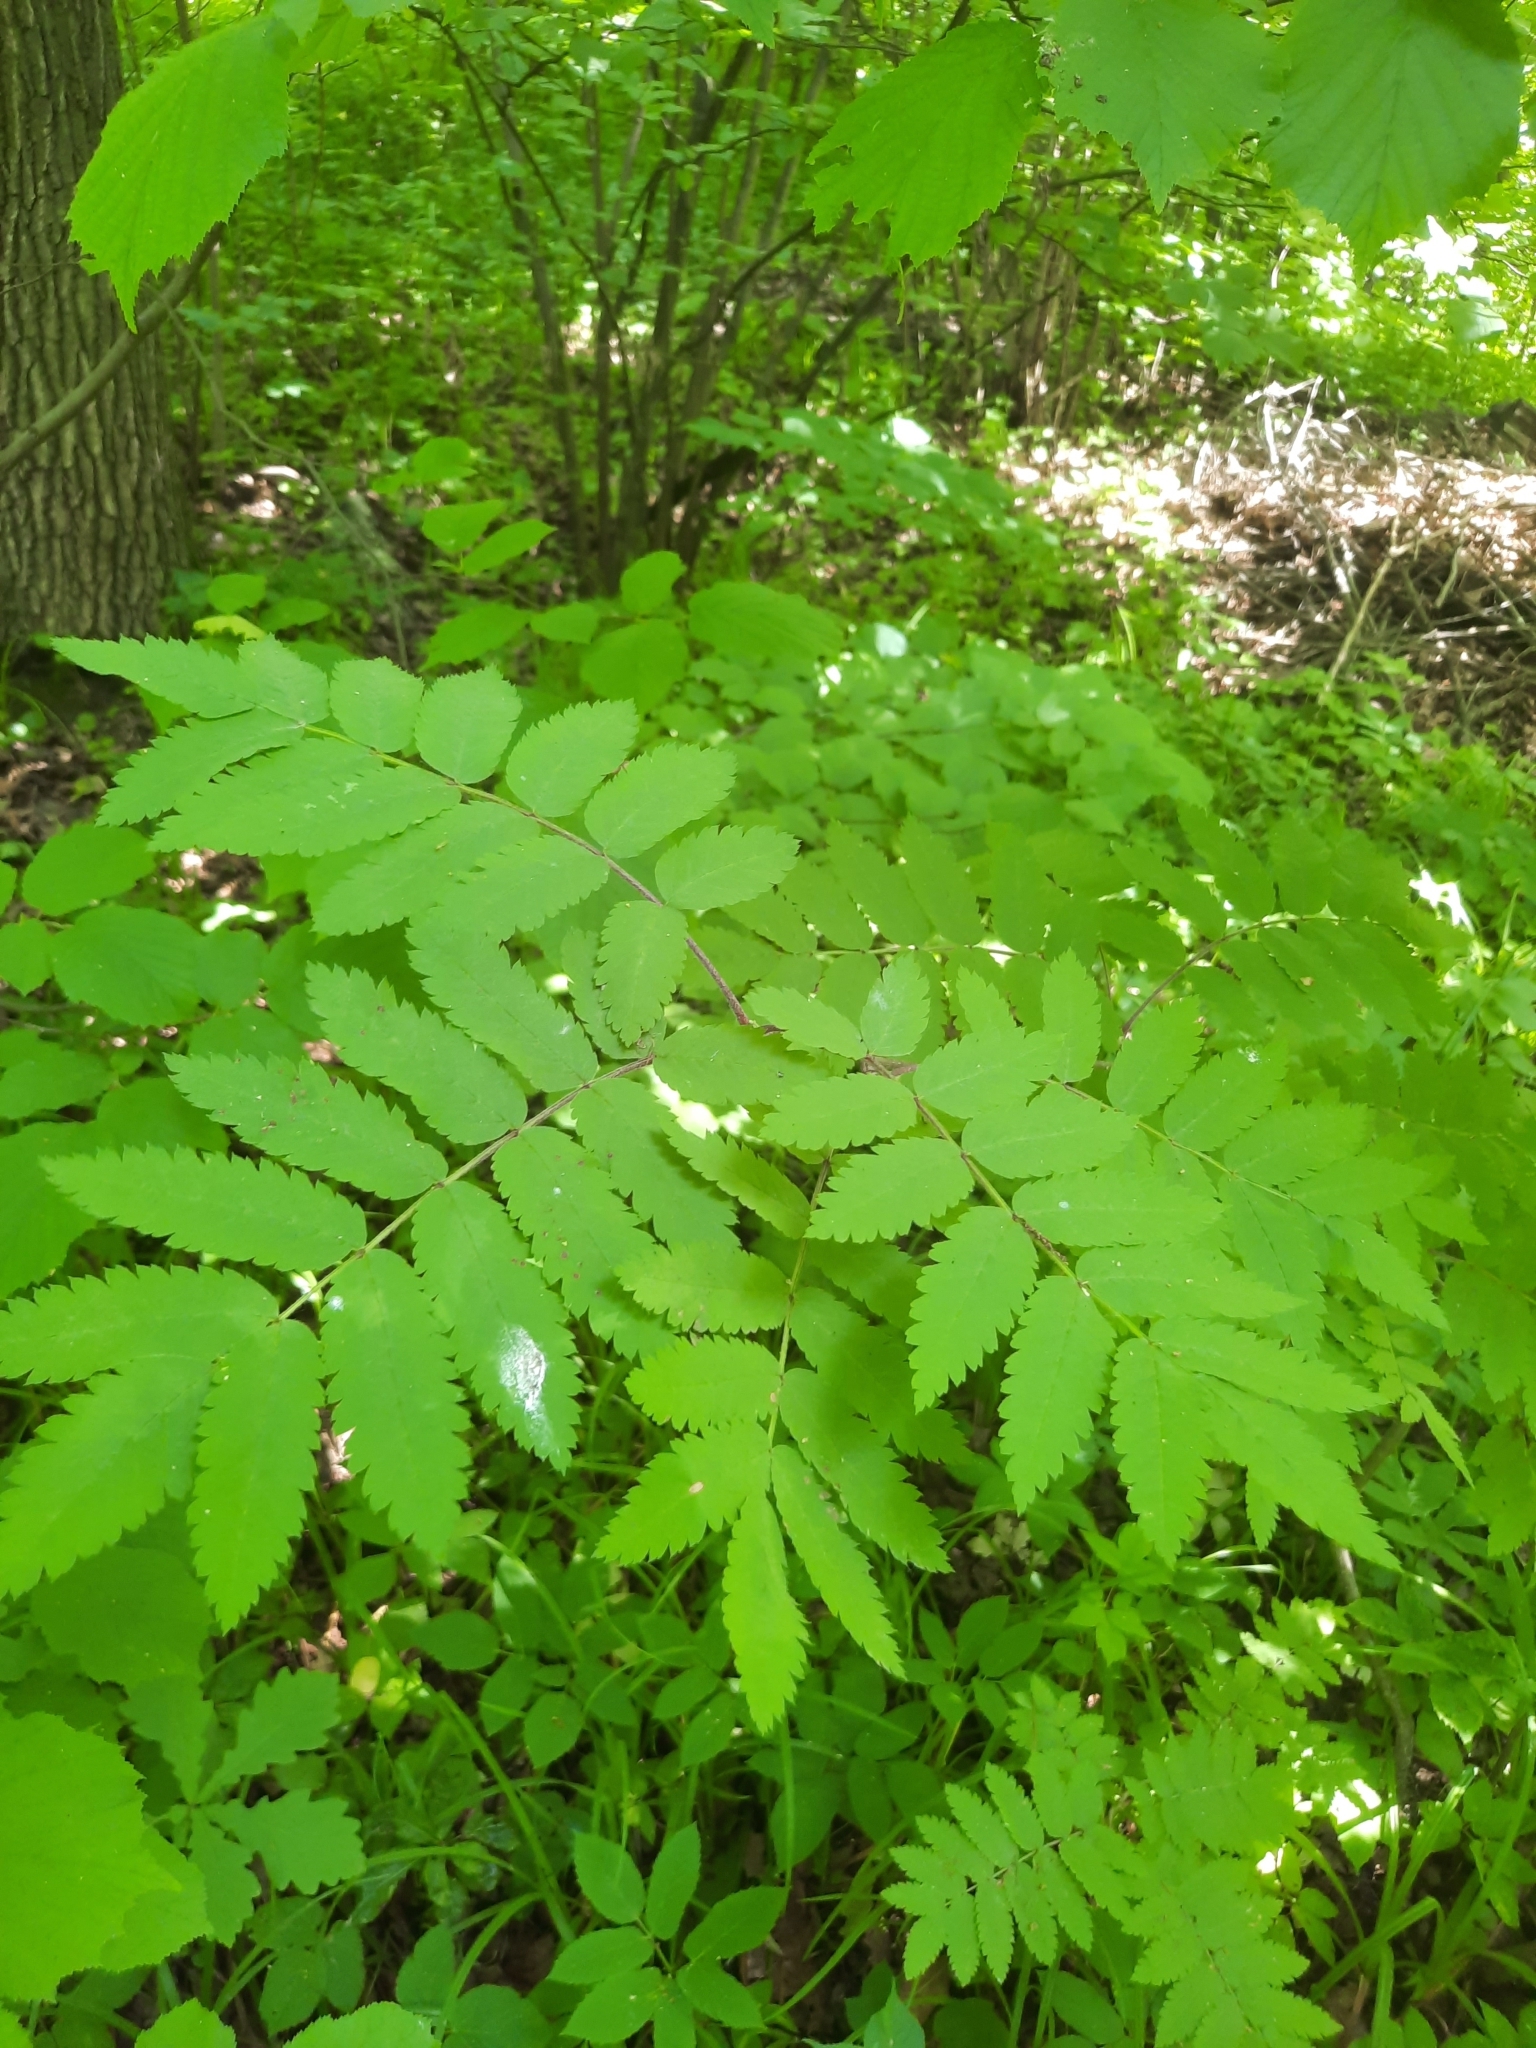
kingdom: Plantae
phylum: Tracheophyta
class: Magnoliopsida
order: Rosales
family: Rosaceae
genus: Sorbus
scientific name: Sorbus aucuparia
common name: Rowan
